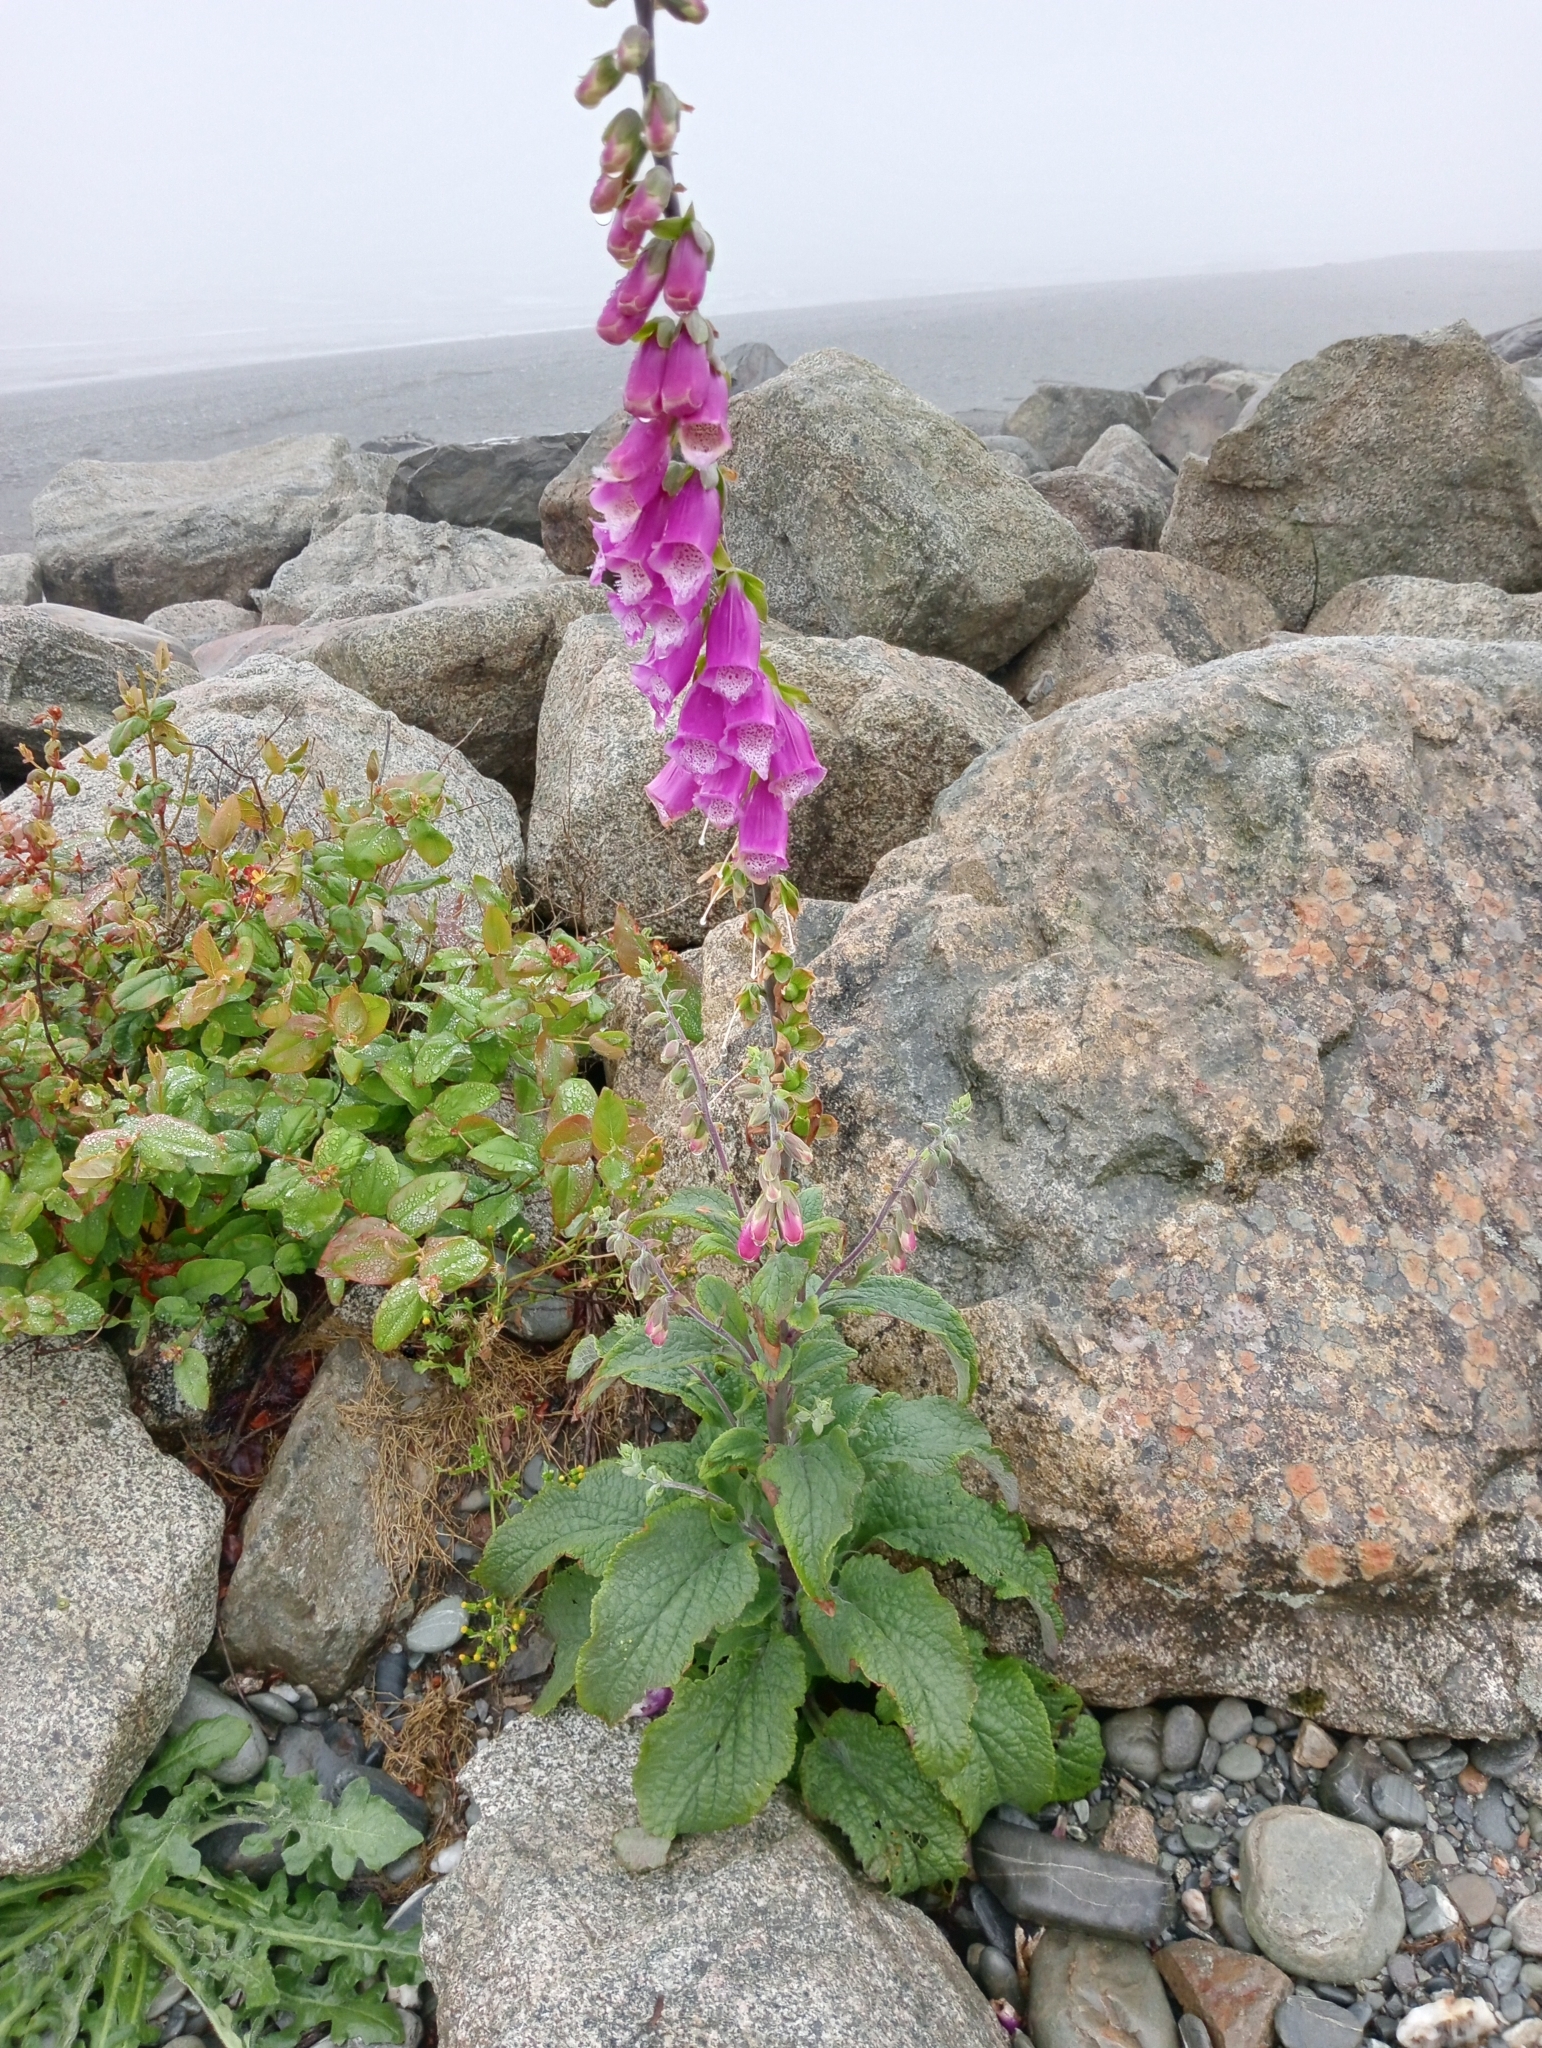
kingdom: Plantae
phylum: Tracheophyta
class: Magnoliopsida
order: Lamiales
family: Plantaginaceae
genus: Digitalis
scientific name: Digitalis purpurea
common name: Foxglove
